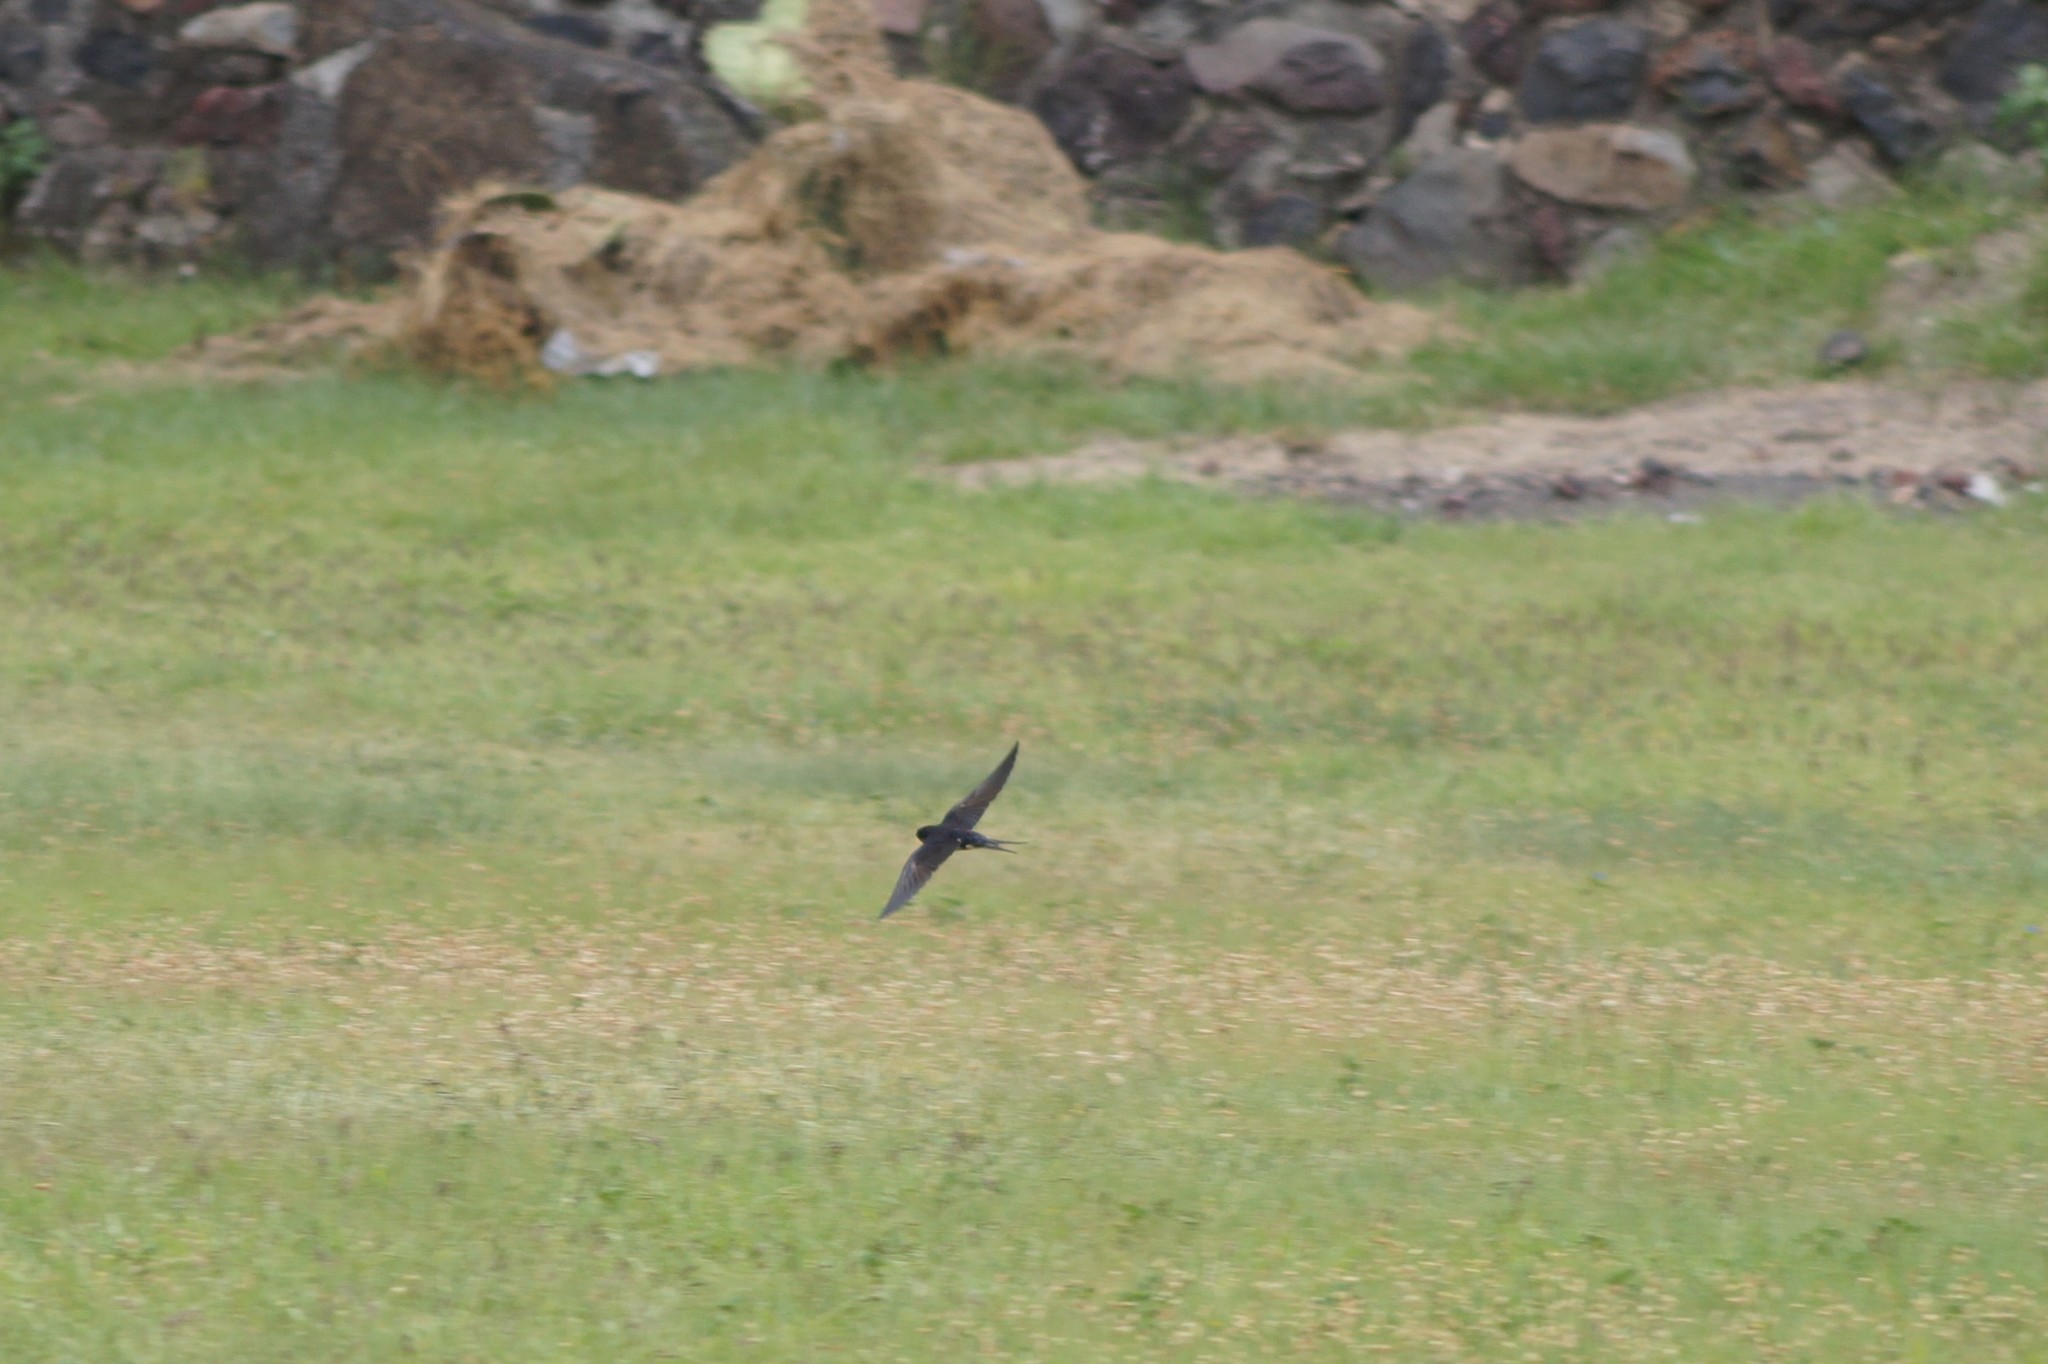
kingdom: Animalia
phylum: Chordata
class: Aves
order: Passeriformes
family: Hirundinidae
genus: Hirundo
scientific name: Hirundo rustica
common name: Barn swallow
